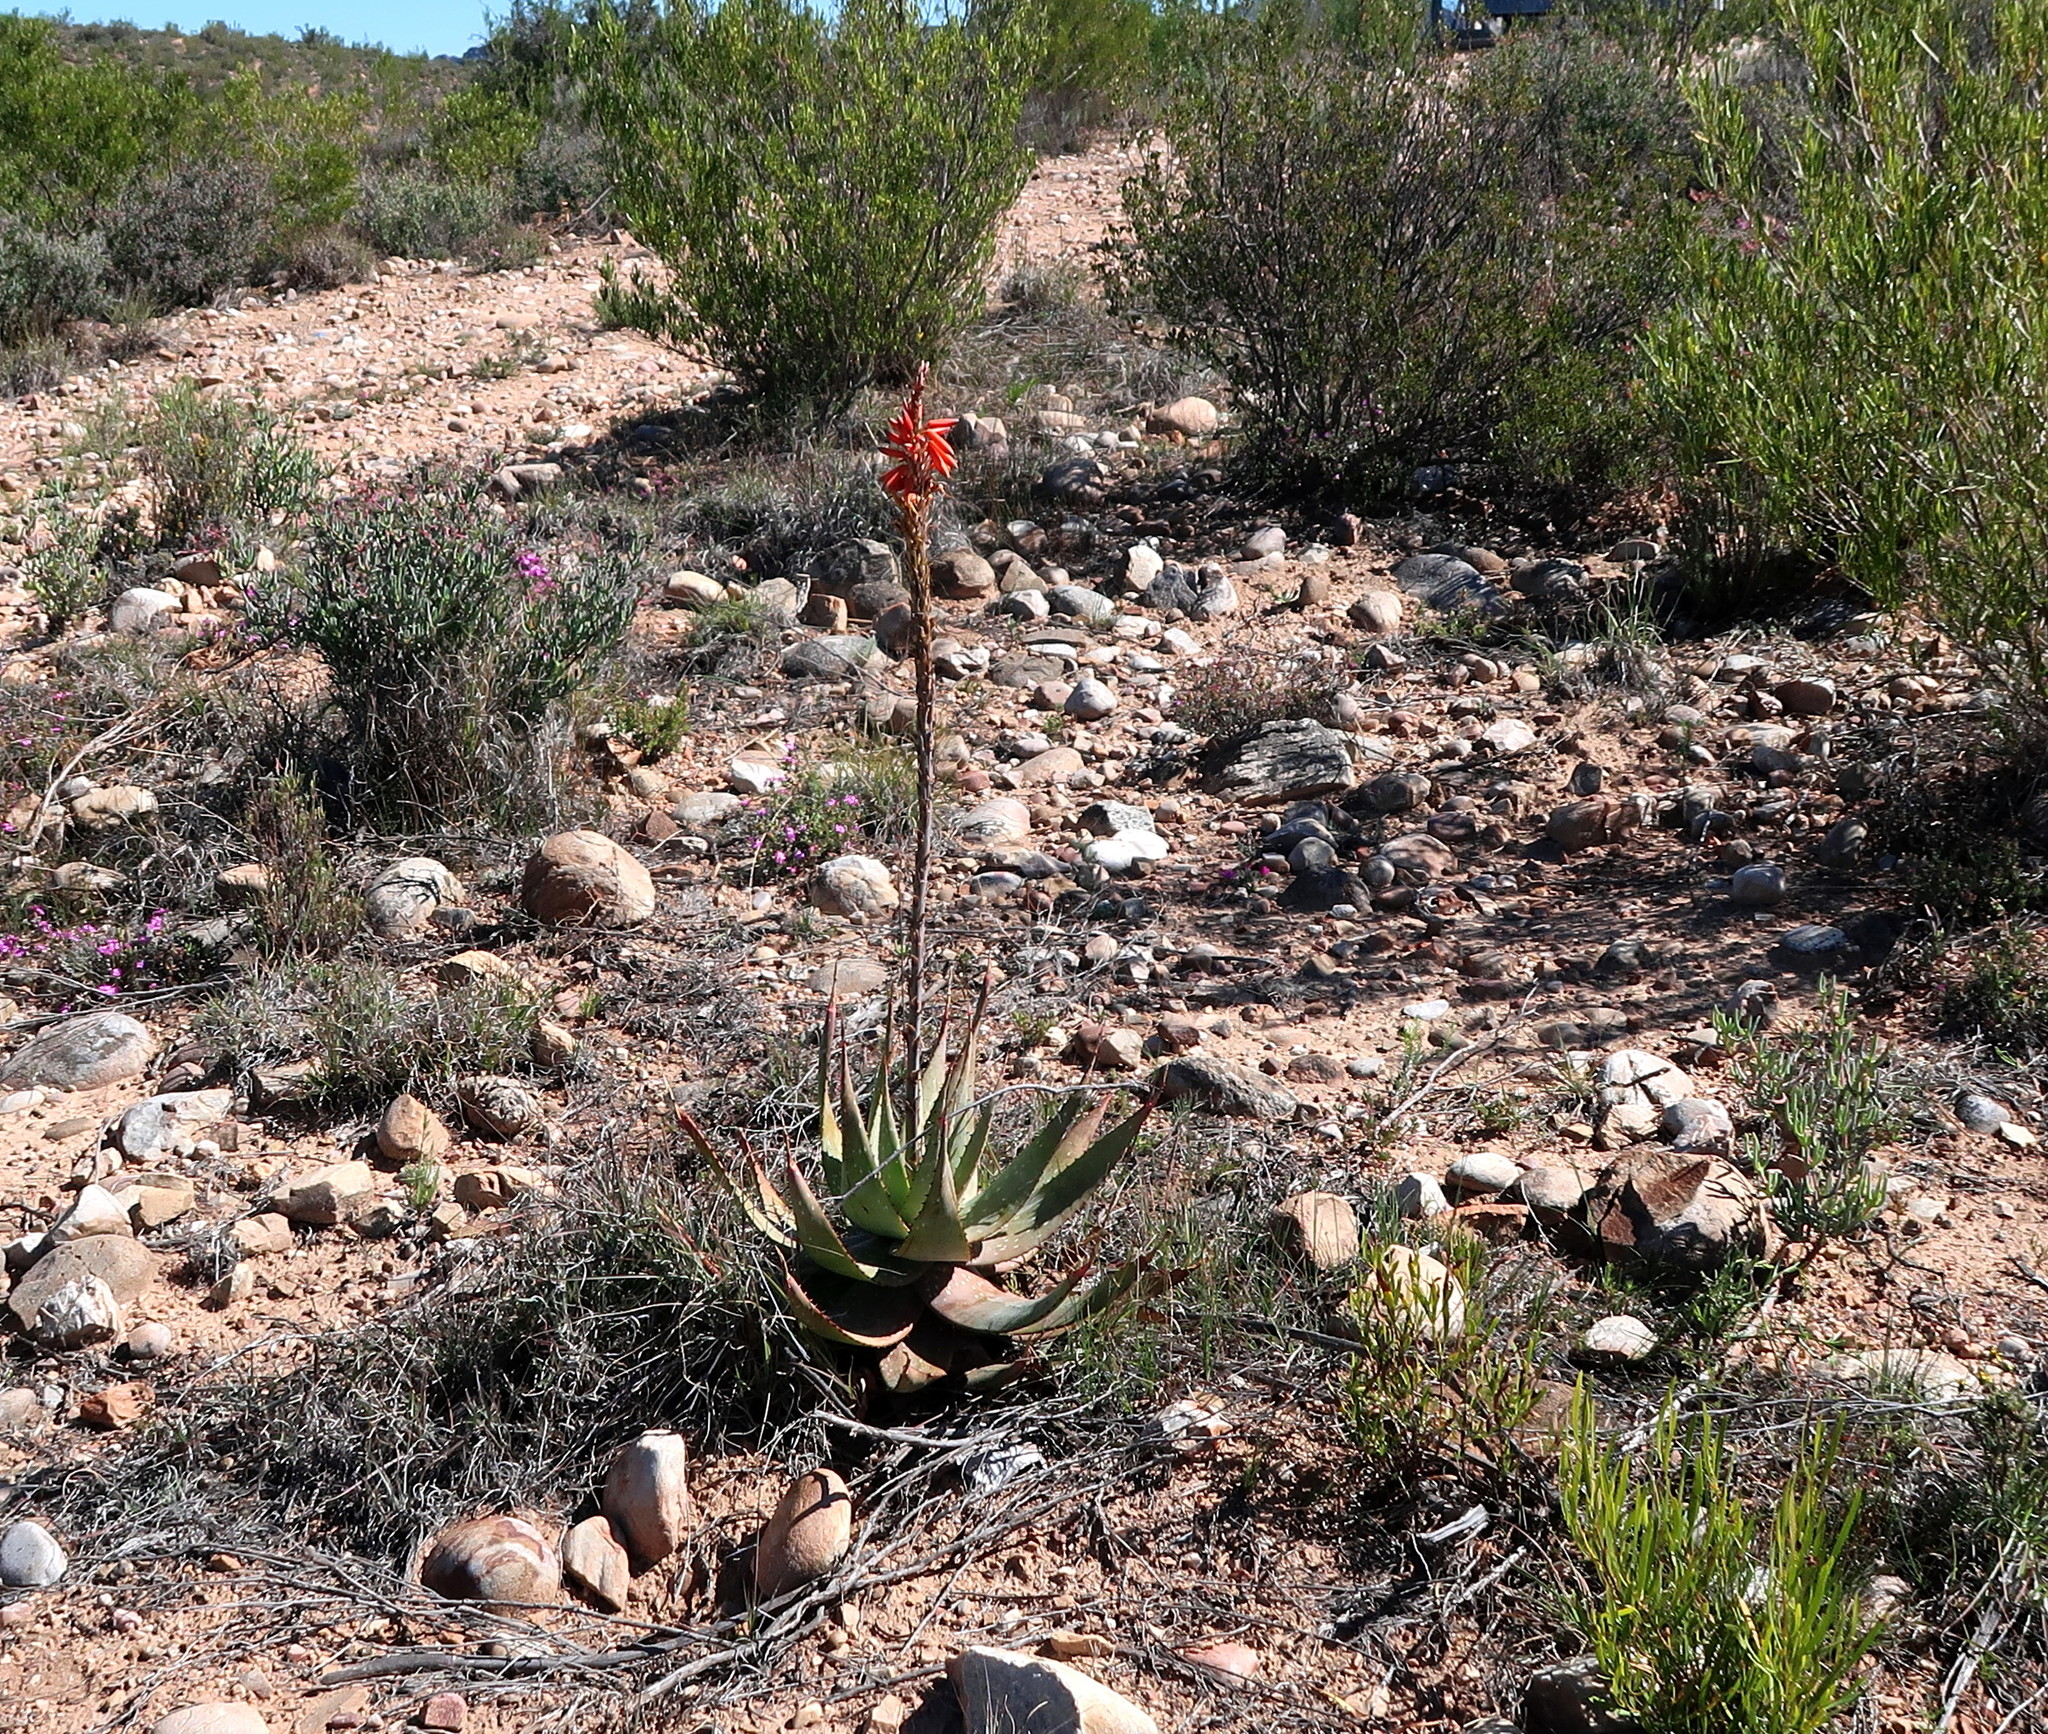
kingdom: Plantae
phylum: Tracheophyta
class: Liliopsida
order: Asparagales
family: Asphodelaceae
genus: Aloe
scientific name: Aloe microstigma
